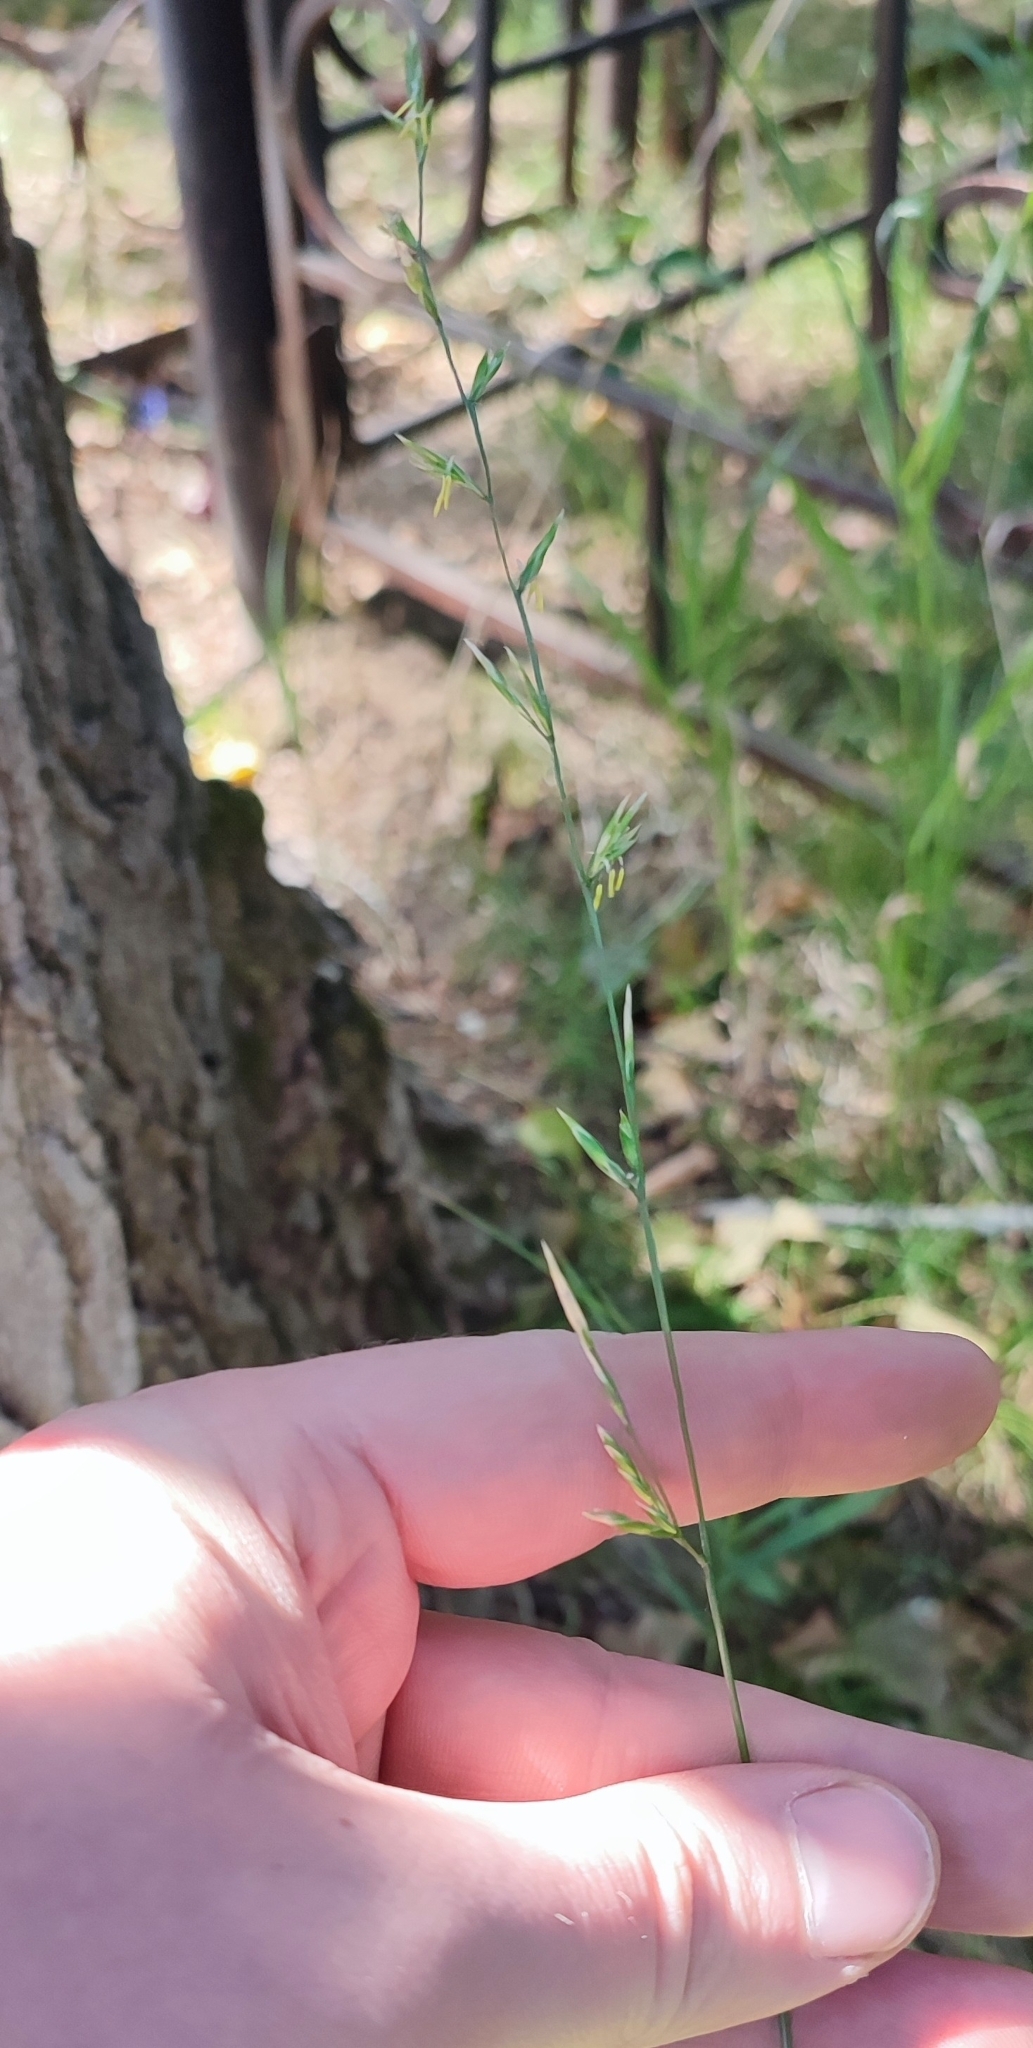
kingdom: Plantae
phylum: Tracheophyta
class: Liliopsida
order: Poales
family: Poaceae
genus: Lolium
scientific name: Lolium pratense
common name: Dover grass
